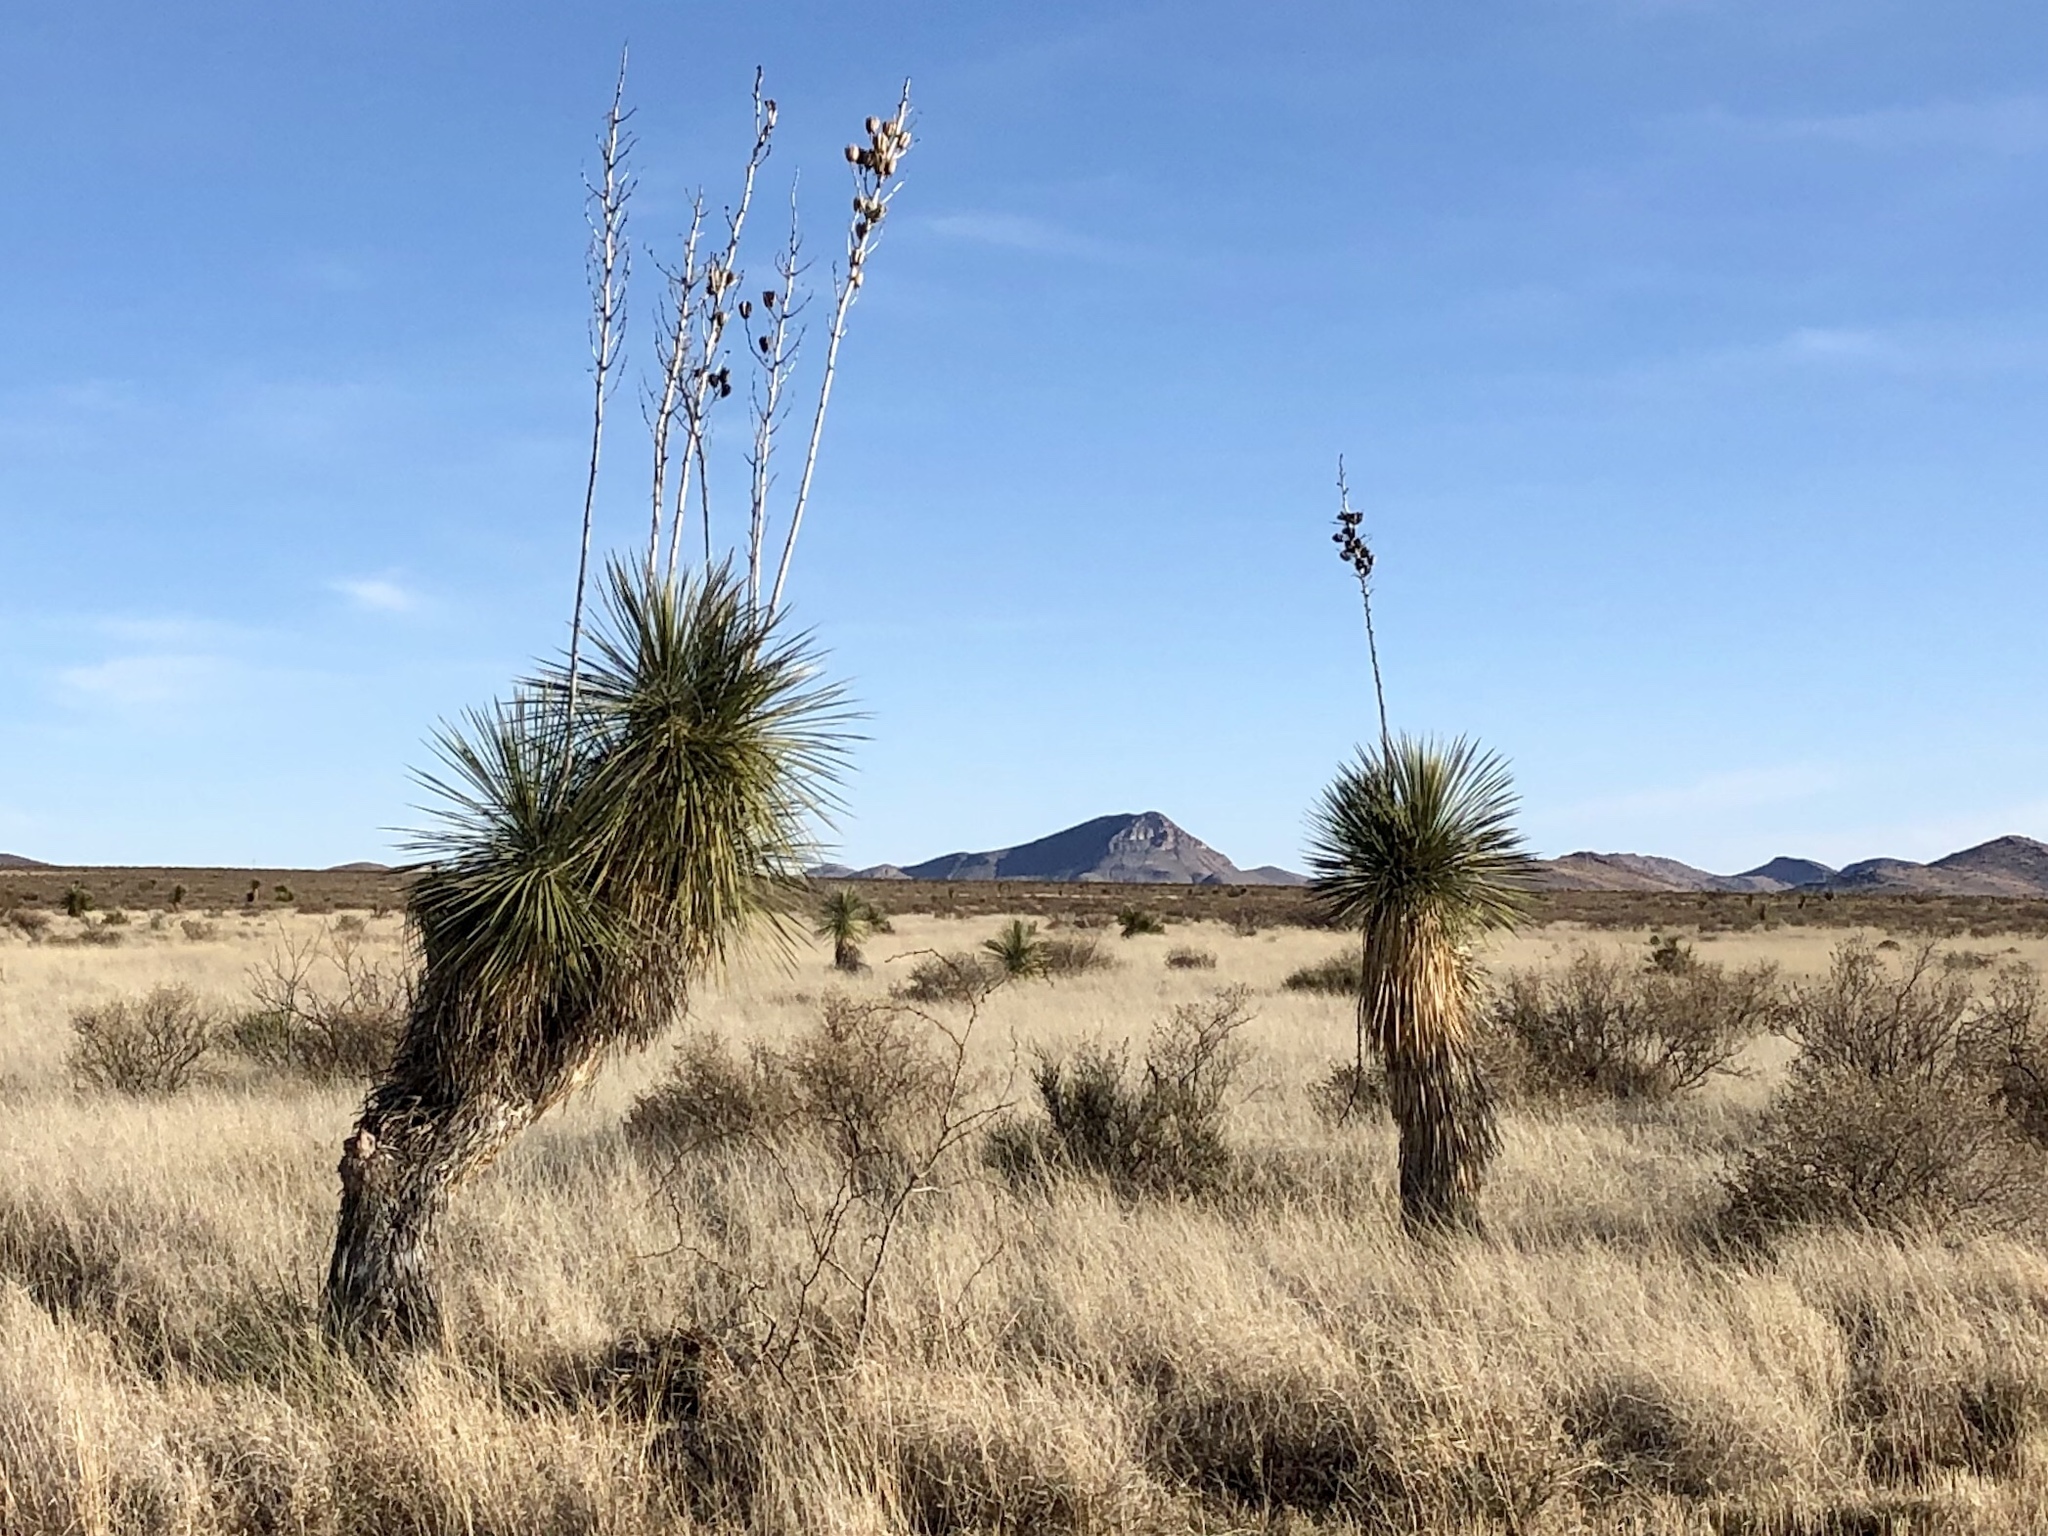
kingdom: Plantae
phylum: Tracheophyta
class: Liliopsida
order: Asparagales
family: Asparagaceae
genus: Yucca
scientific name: Yucca elata
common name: Palmella
